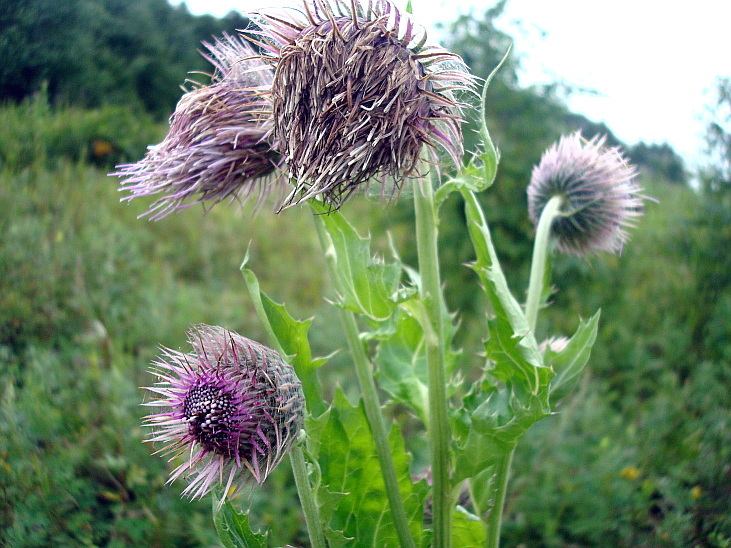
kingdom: Plantae
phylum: Tracheophyta
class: Magnoliopsida
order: Asterales
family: Asteraceae
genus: Cirsium
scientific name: Cirsium kamtschaticum
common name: Kamchatka thistle
